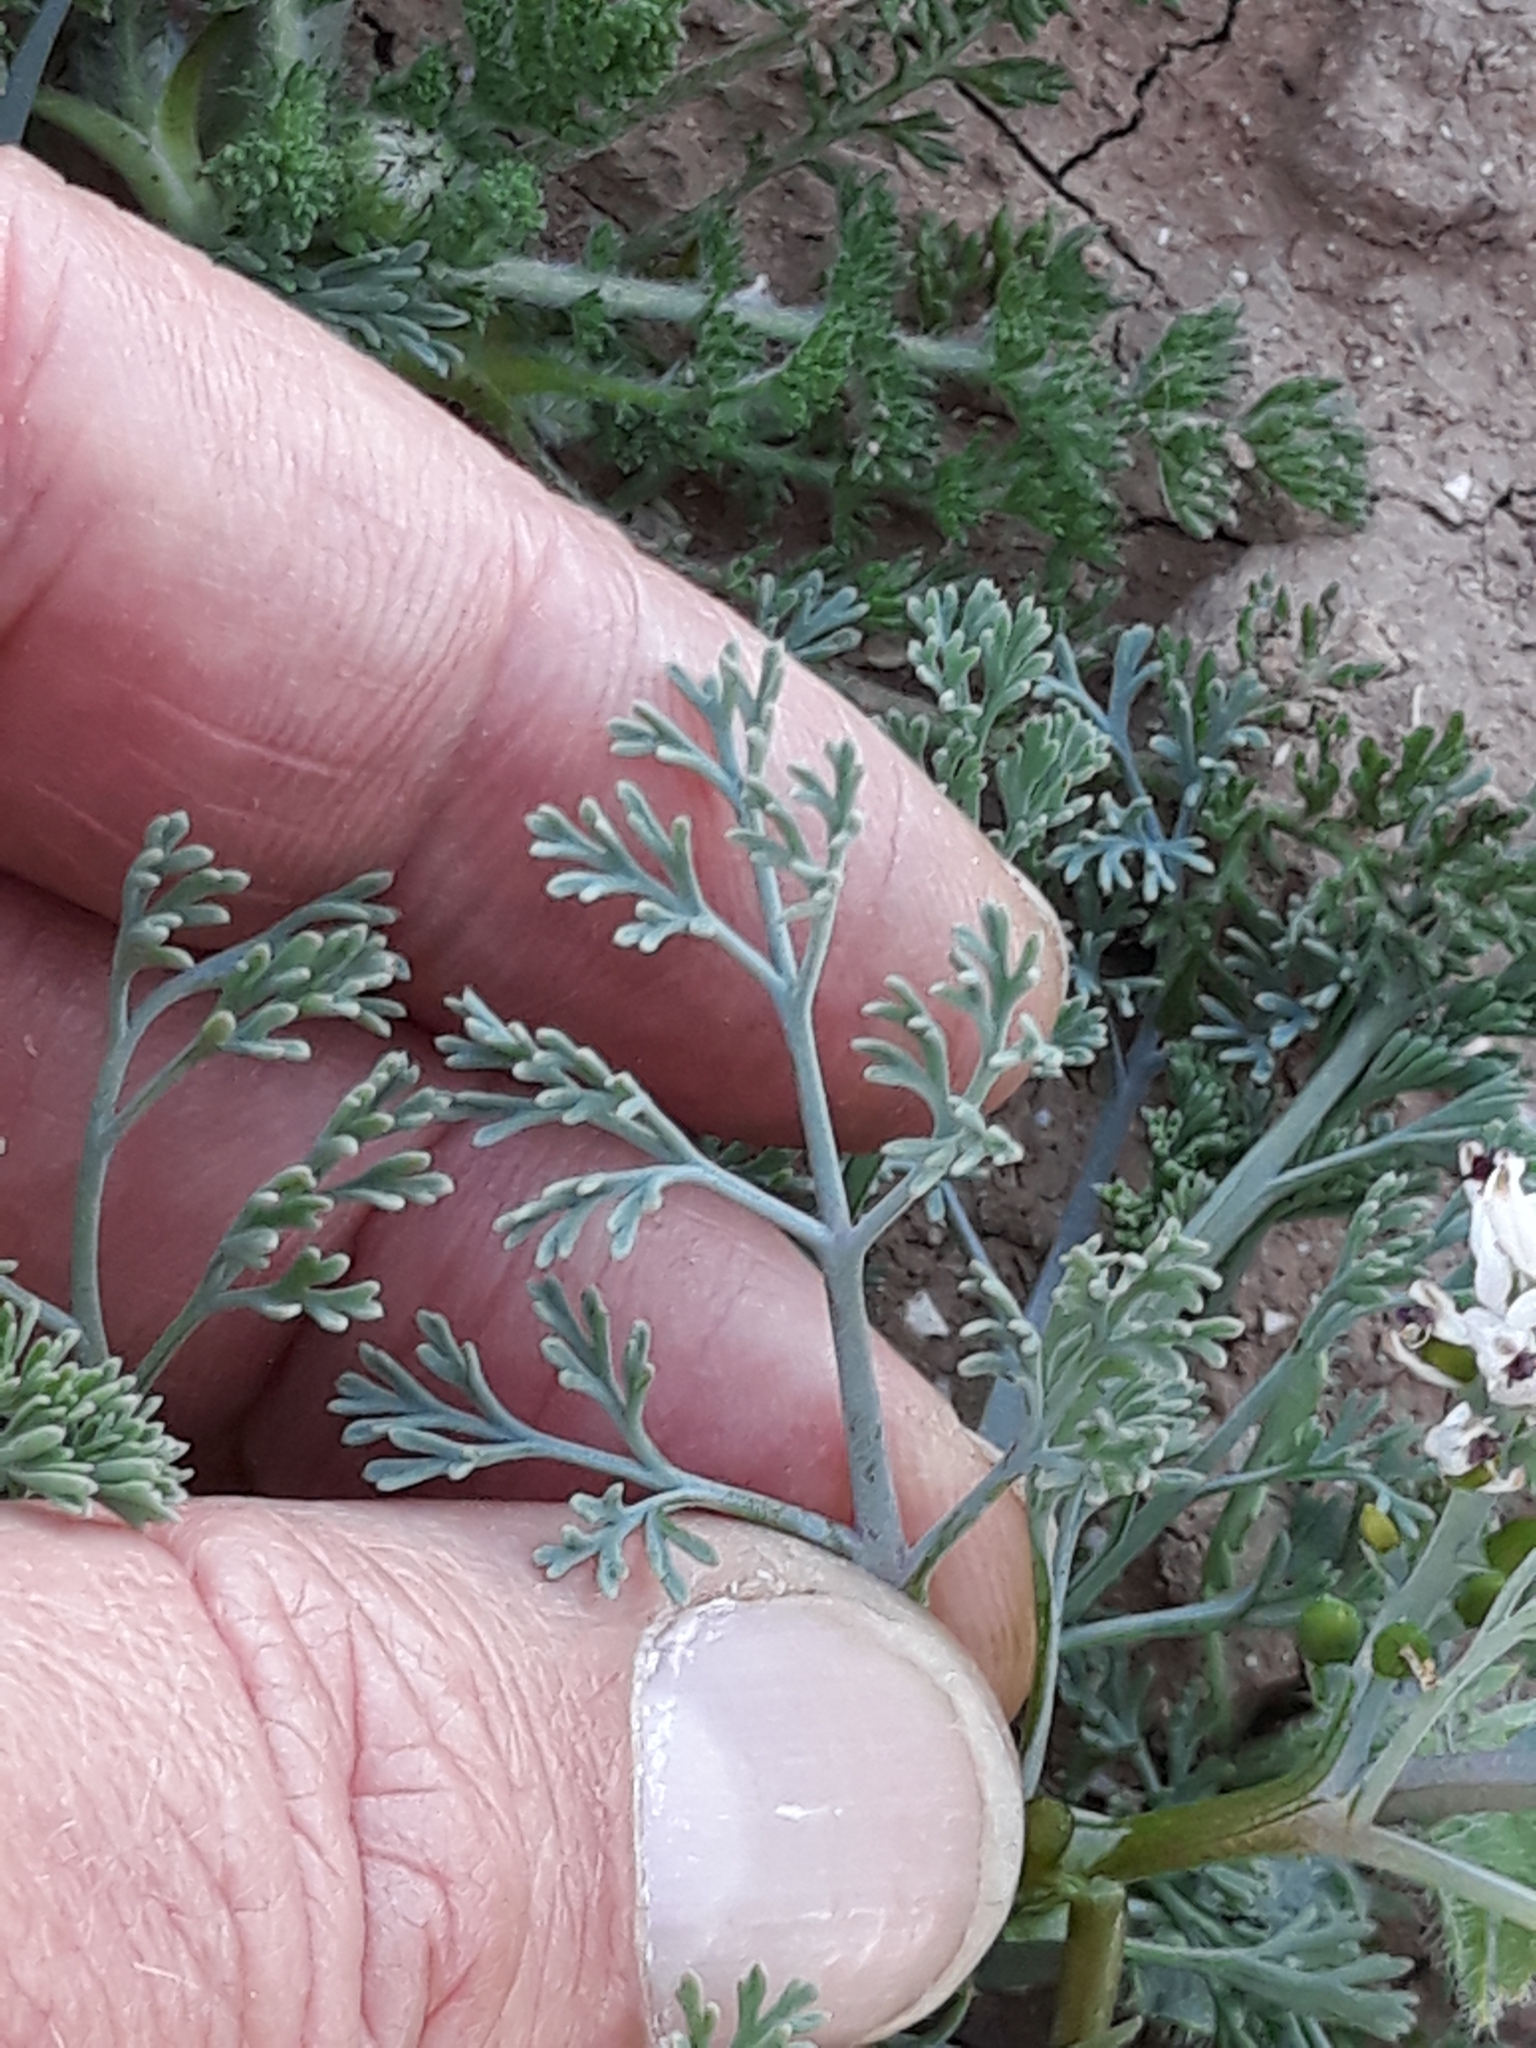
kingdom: Plantae
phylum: Tracheophyta
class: Magnoliopsida
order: Ranunculales
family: Papaveraceae
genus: Fumaria
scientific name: Fumaria parviflora
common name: Fine-leaved fumitory
